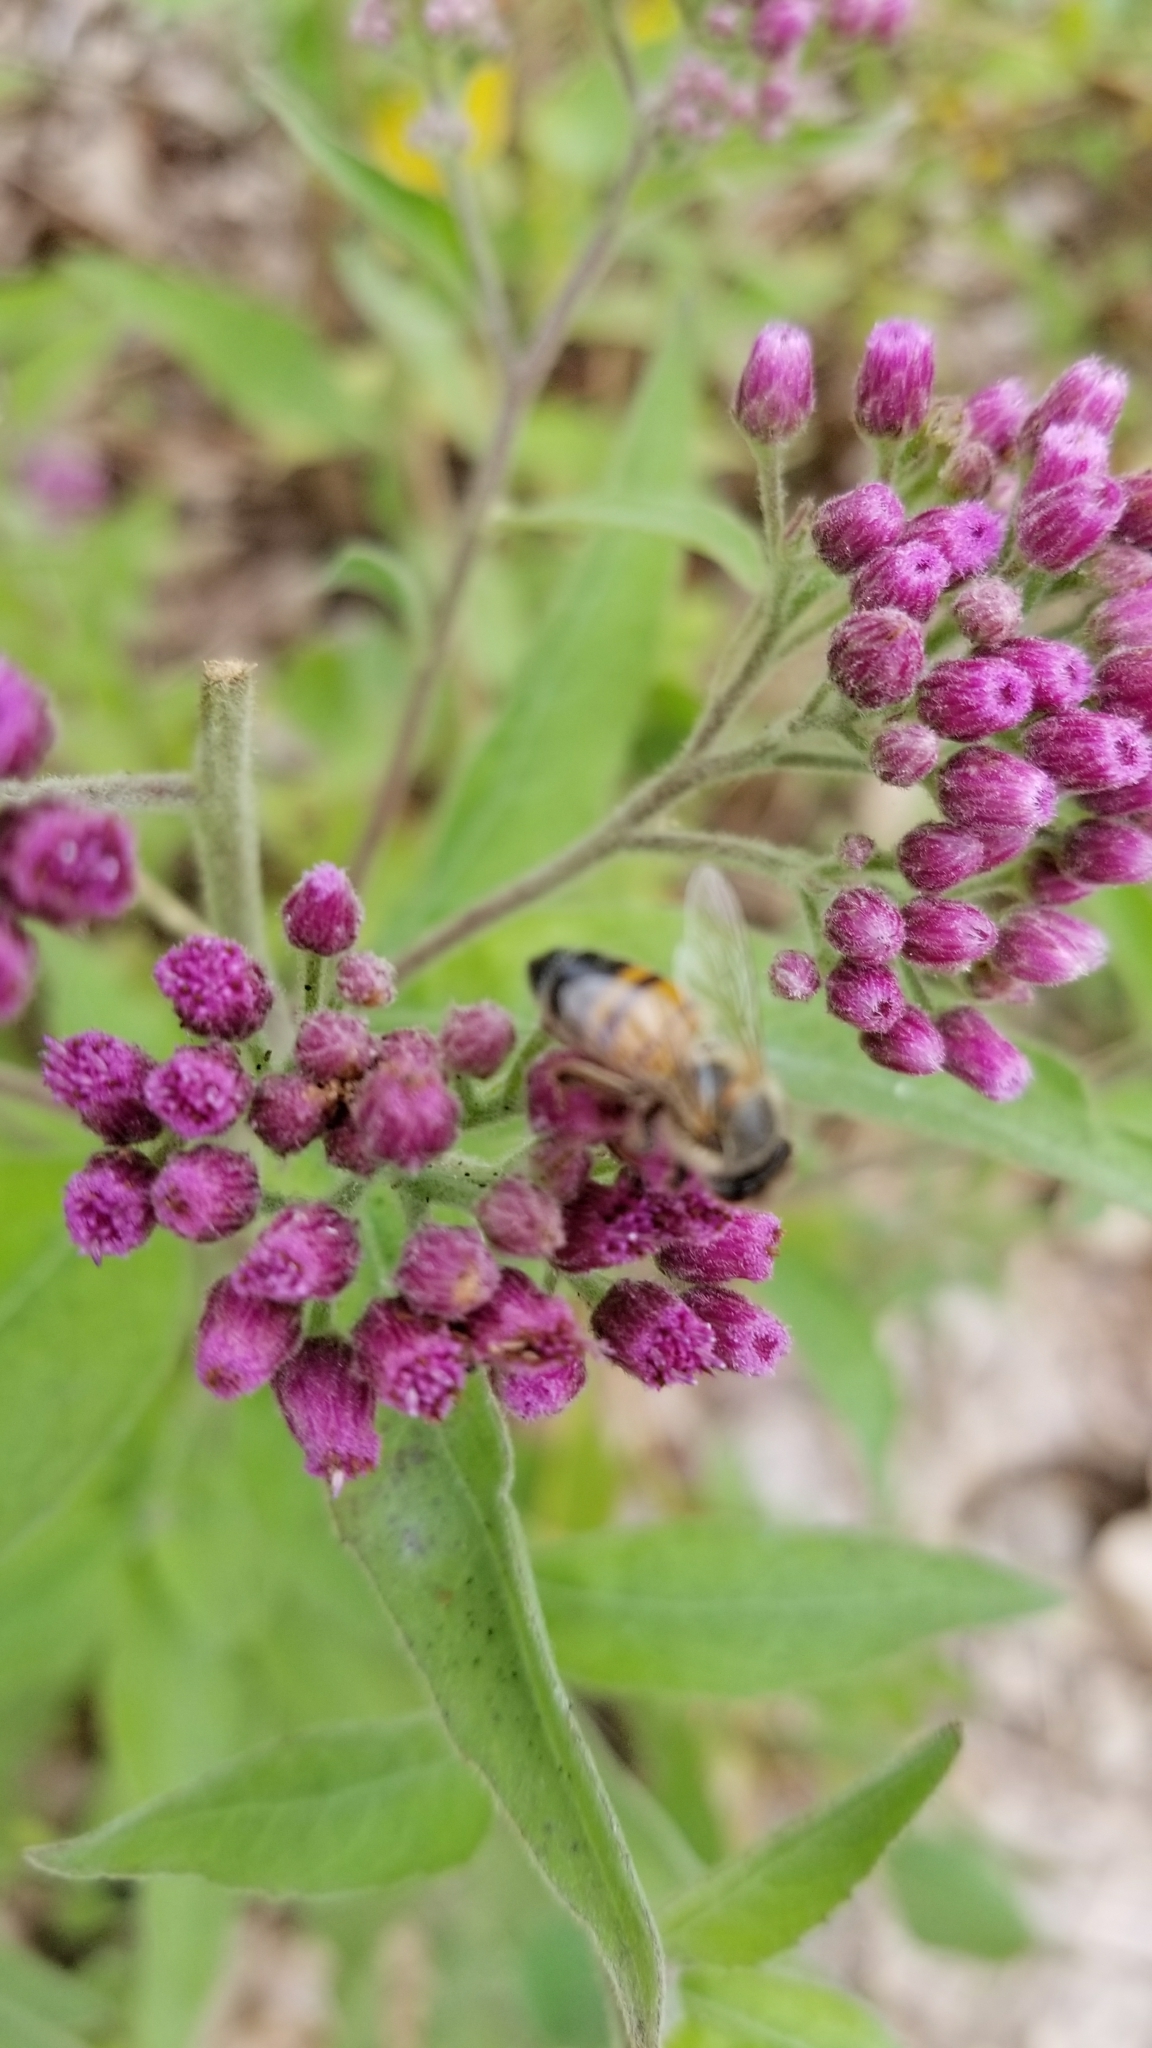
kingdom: Animalia
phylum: Arthropoda
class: Insecta
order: Hymenoptera
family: Apidae
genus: Apis
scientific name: Apis mellifera
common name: Honey bee
